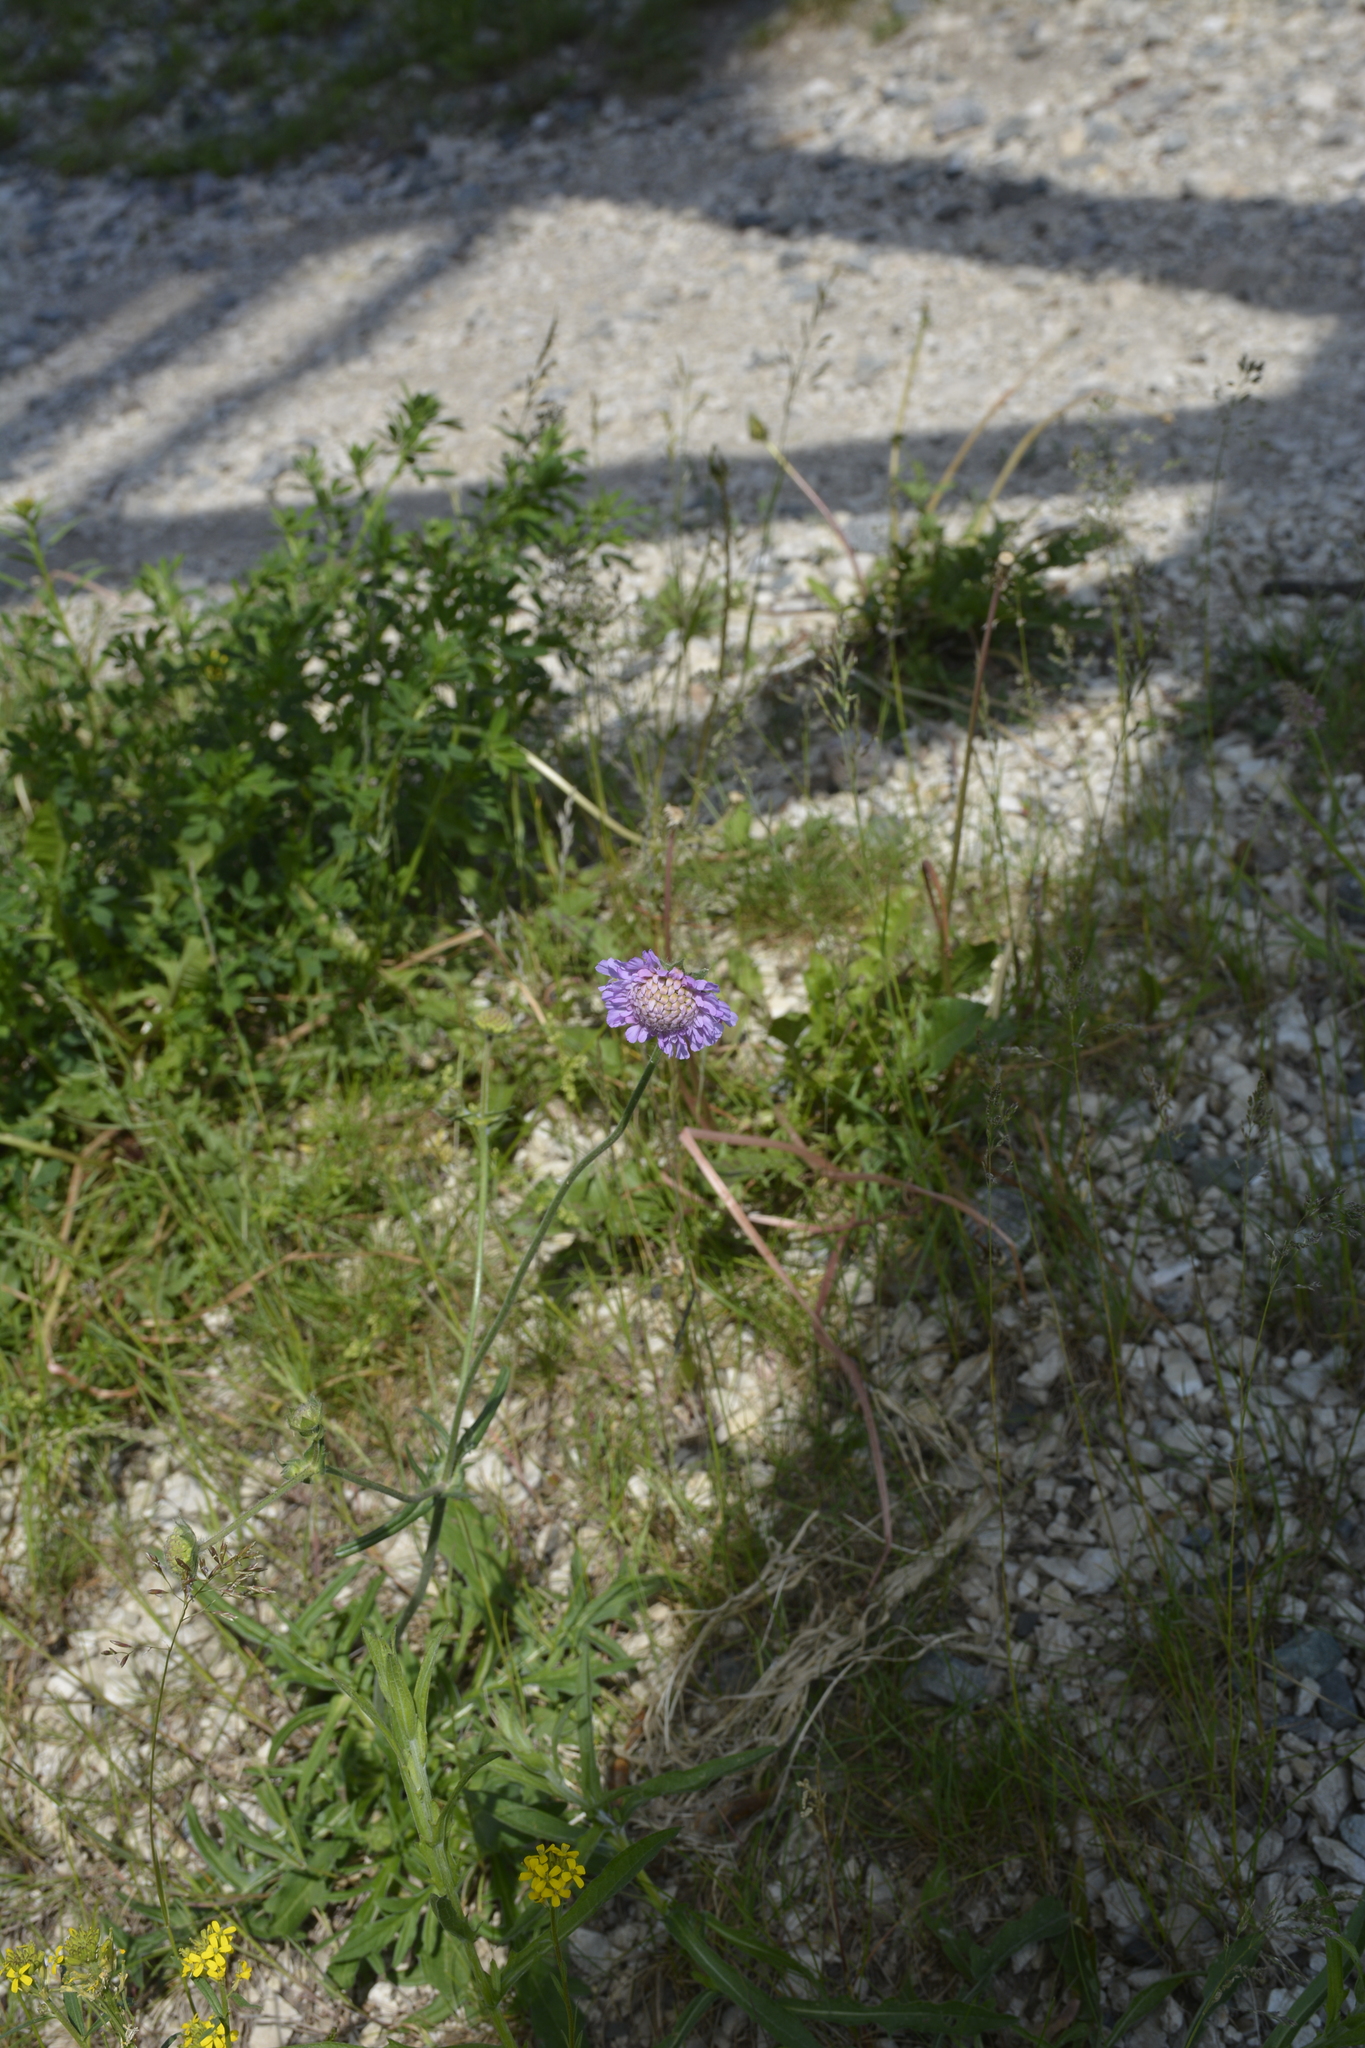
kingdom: Plantae
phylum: Tracheophyta
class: Magnoliopsida
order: Dipsacales
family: Caprifoliaceae
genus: Knautia
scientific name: Knautia arvensis
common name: Field scabiosa
